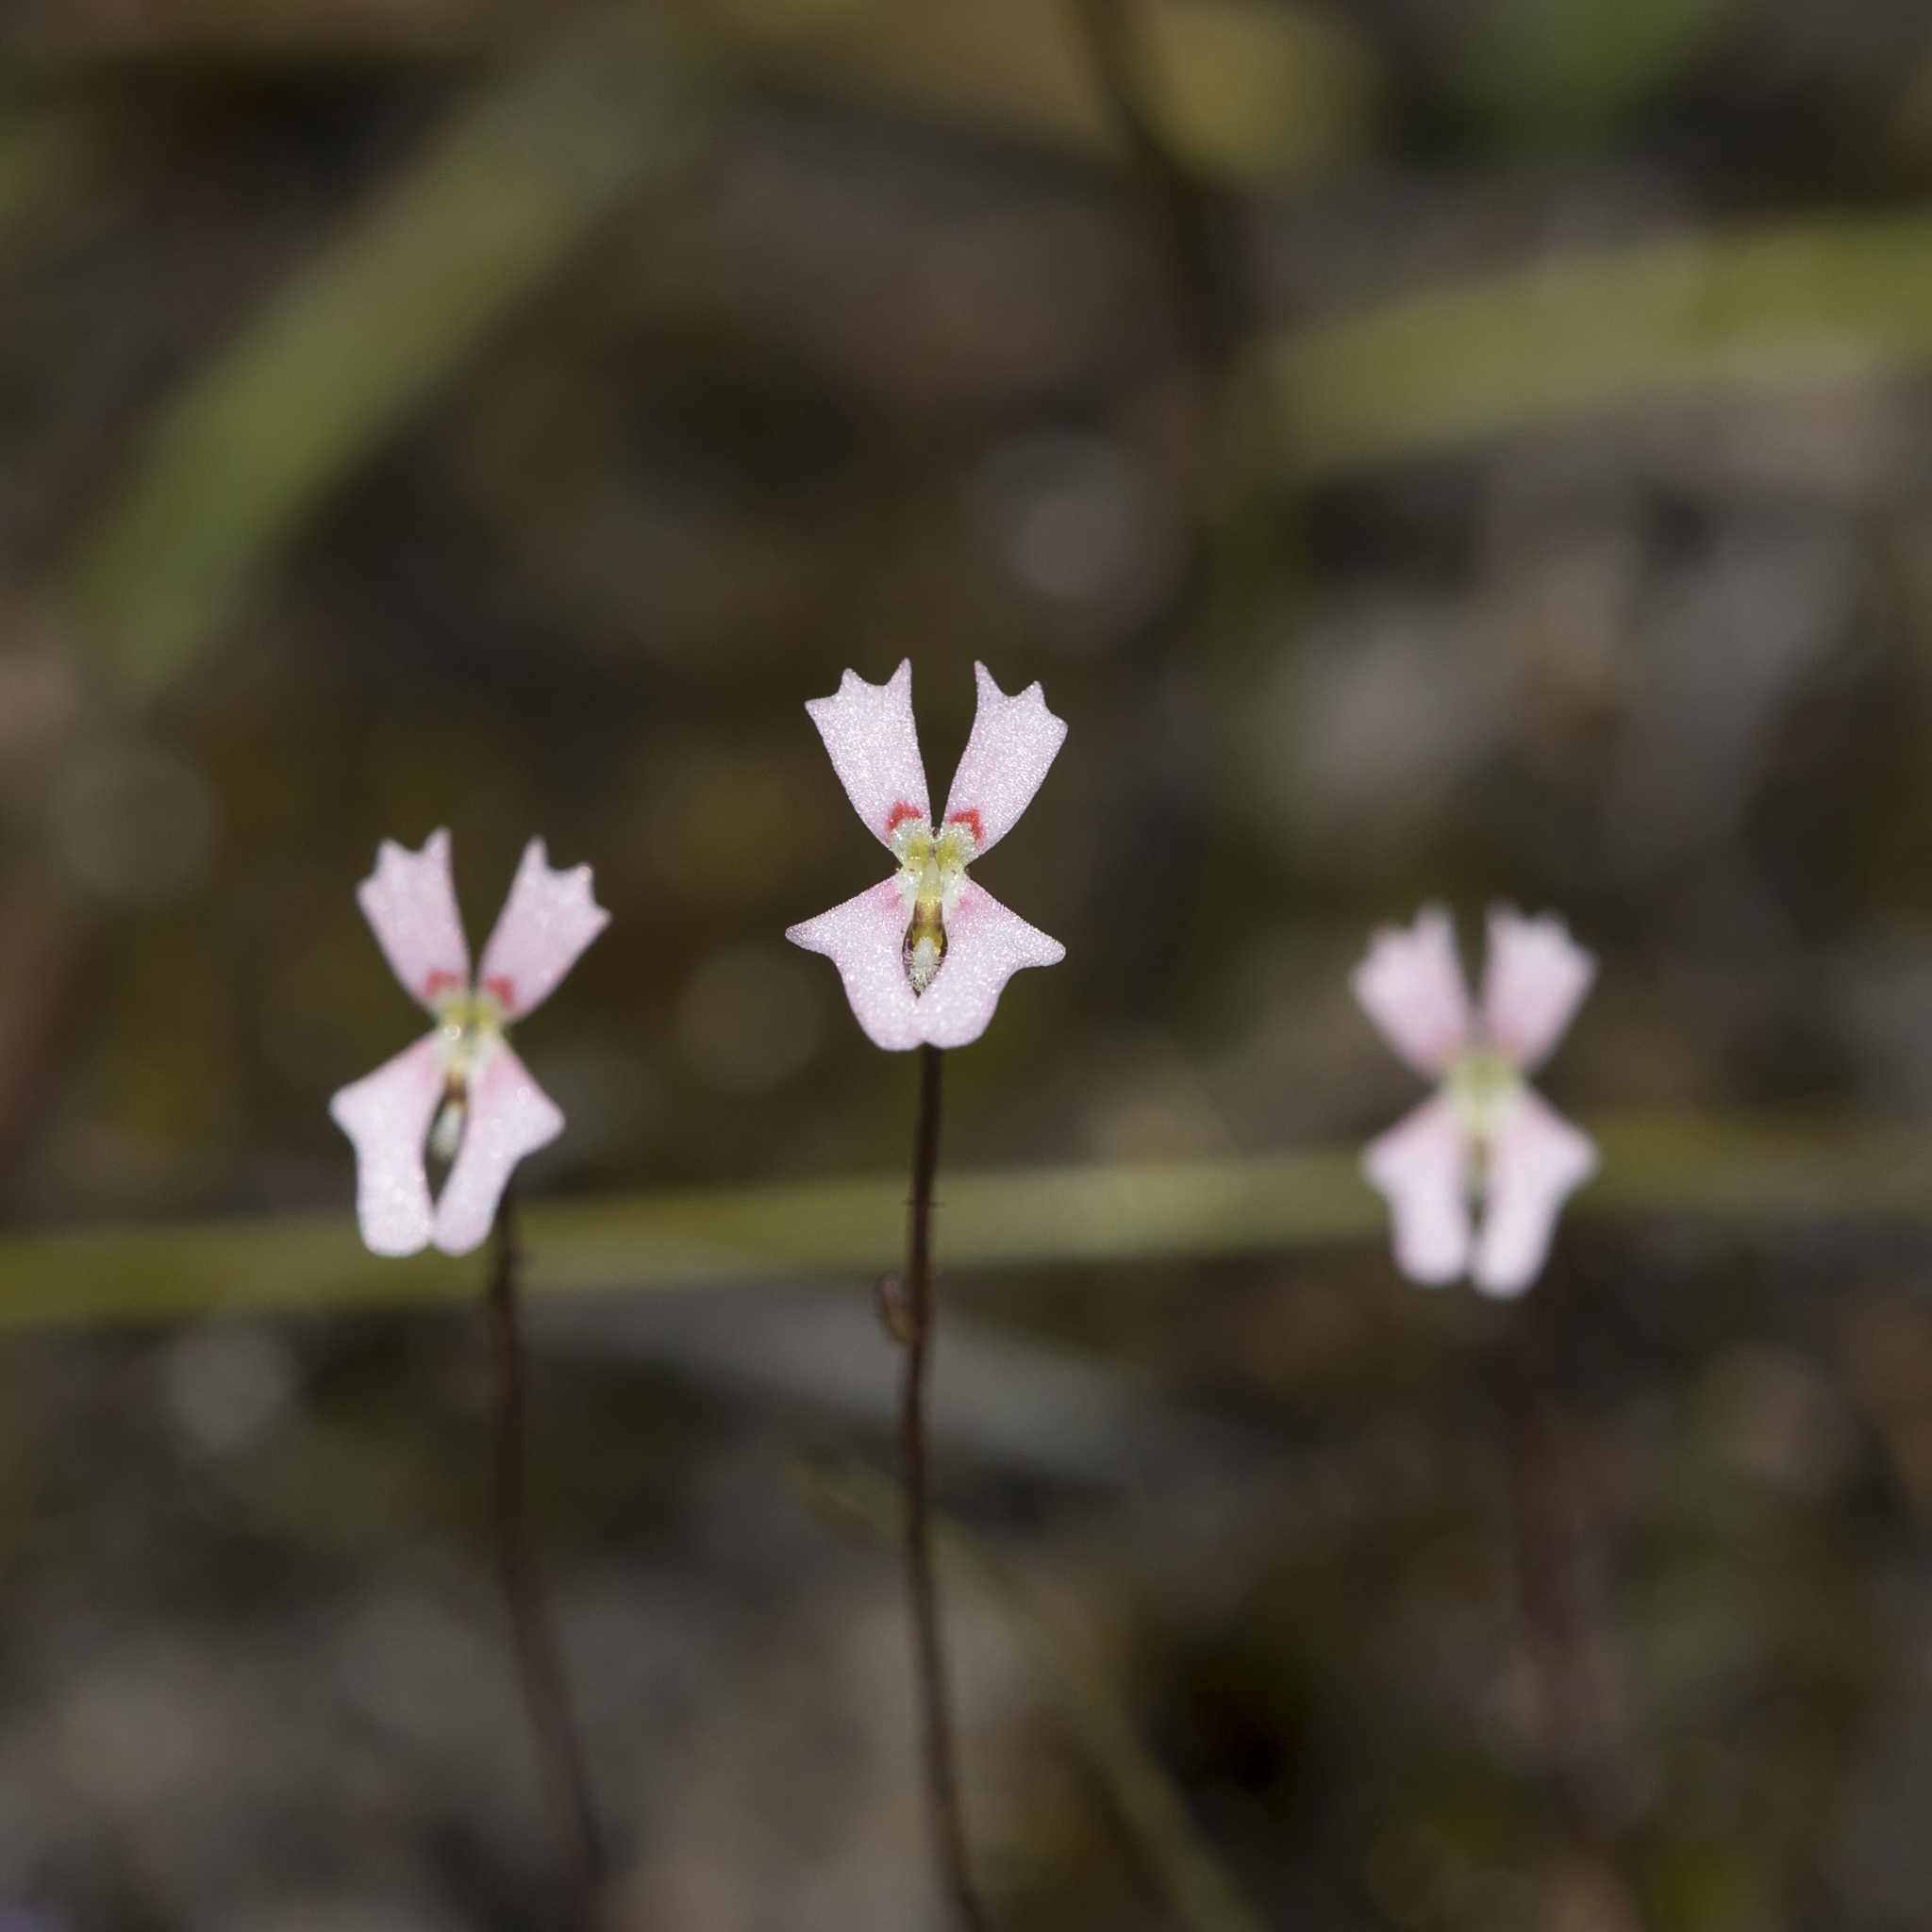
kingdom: Plantae
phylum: Tracheophyta
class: Magnoliopsida
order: Asterales
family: Stylidiaceae
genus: Stylidium
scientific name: Stylidium calcaratum
